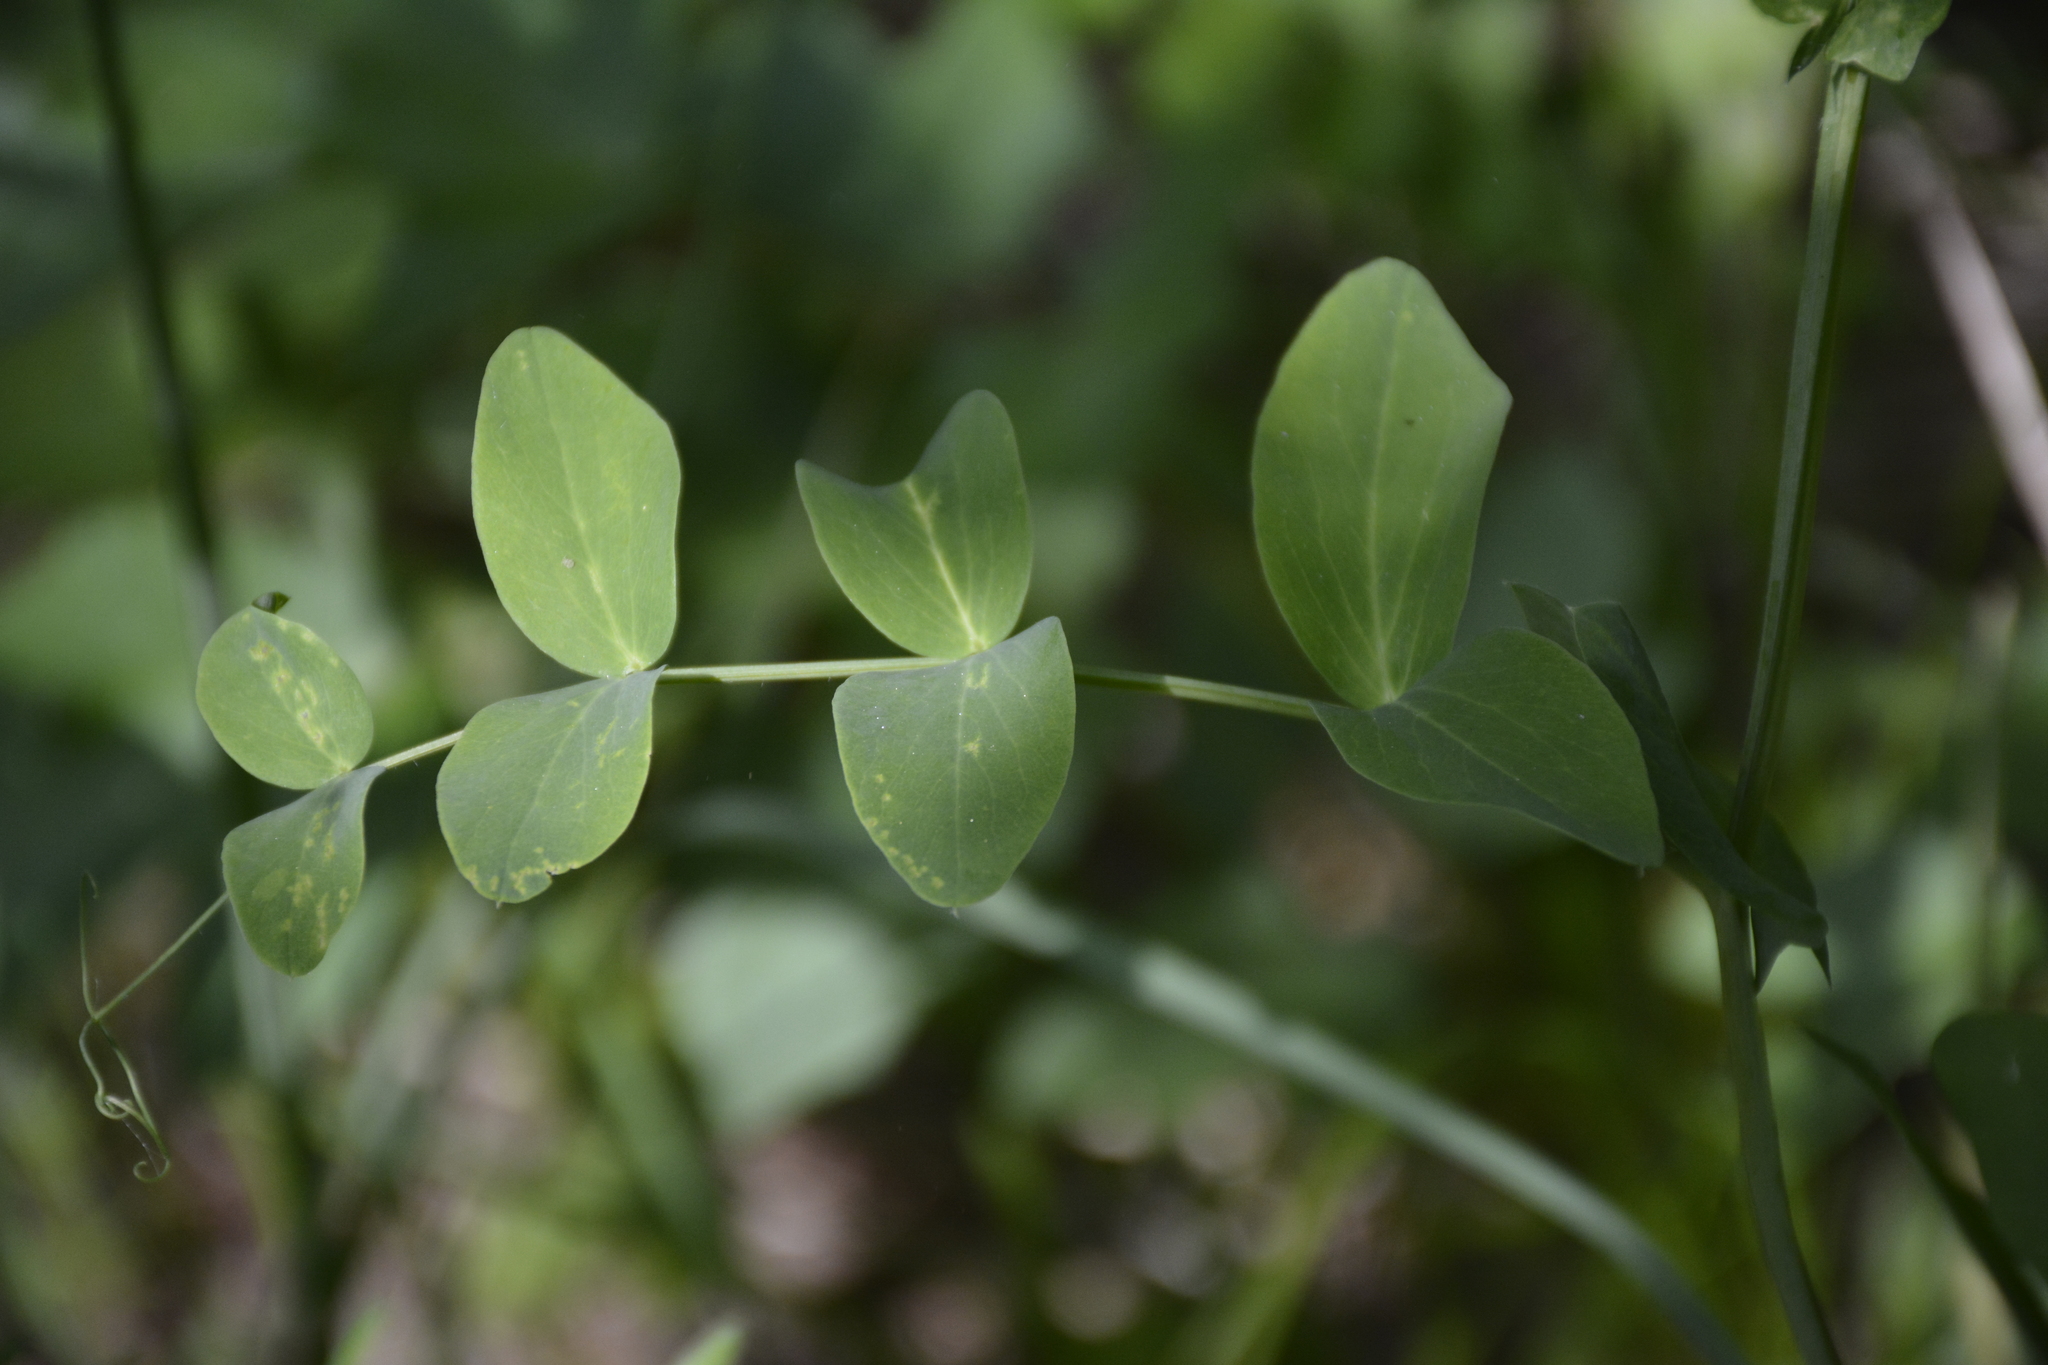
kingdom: Plantae
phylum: Tracheophyta
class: Magnoliopsida
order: Fabales
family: Fabaceae
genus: Lathyrus
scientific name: Lathyrus pisiformis
